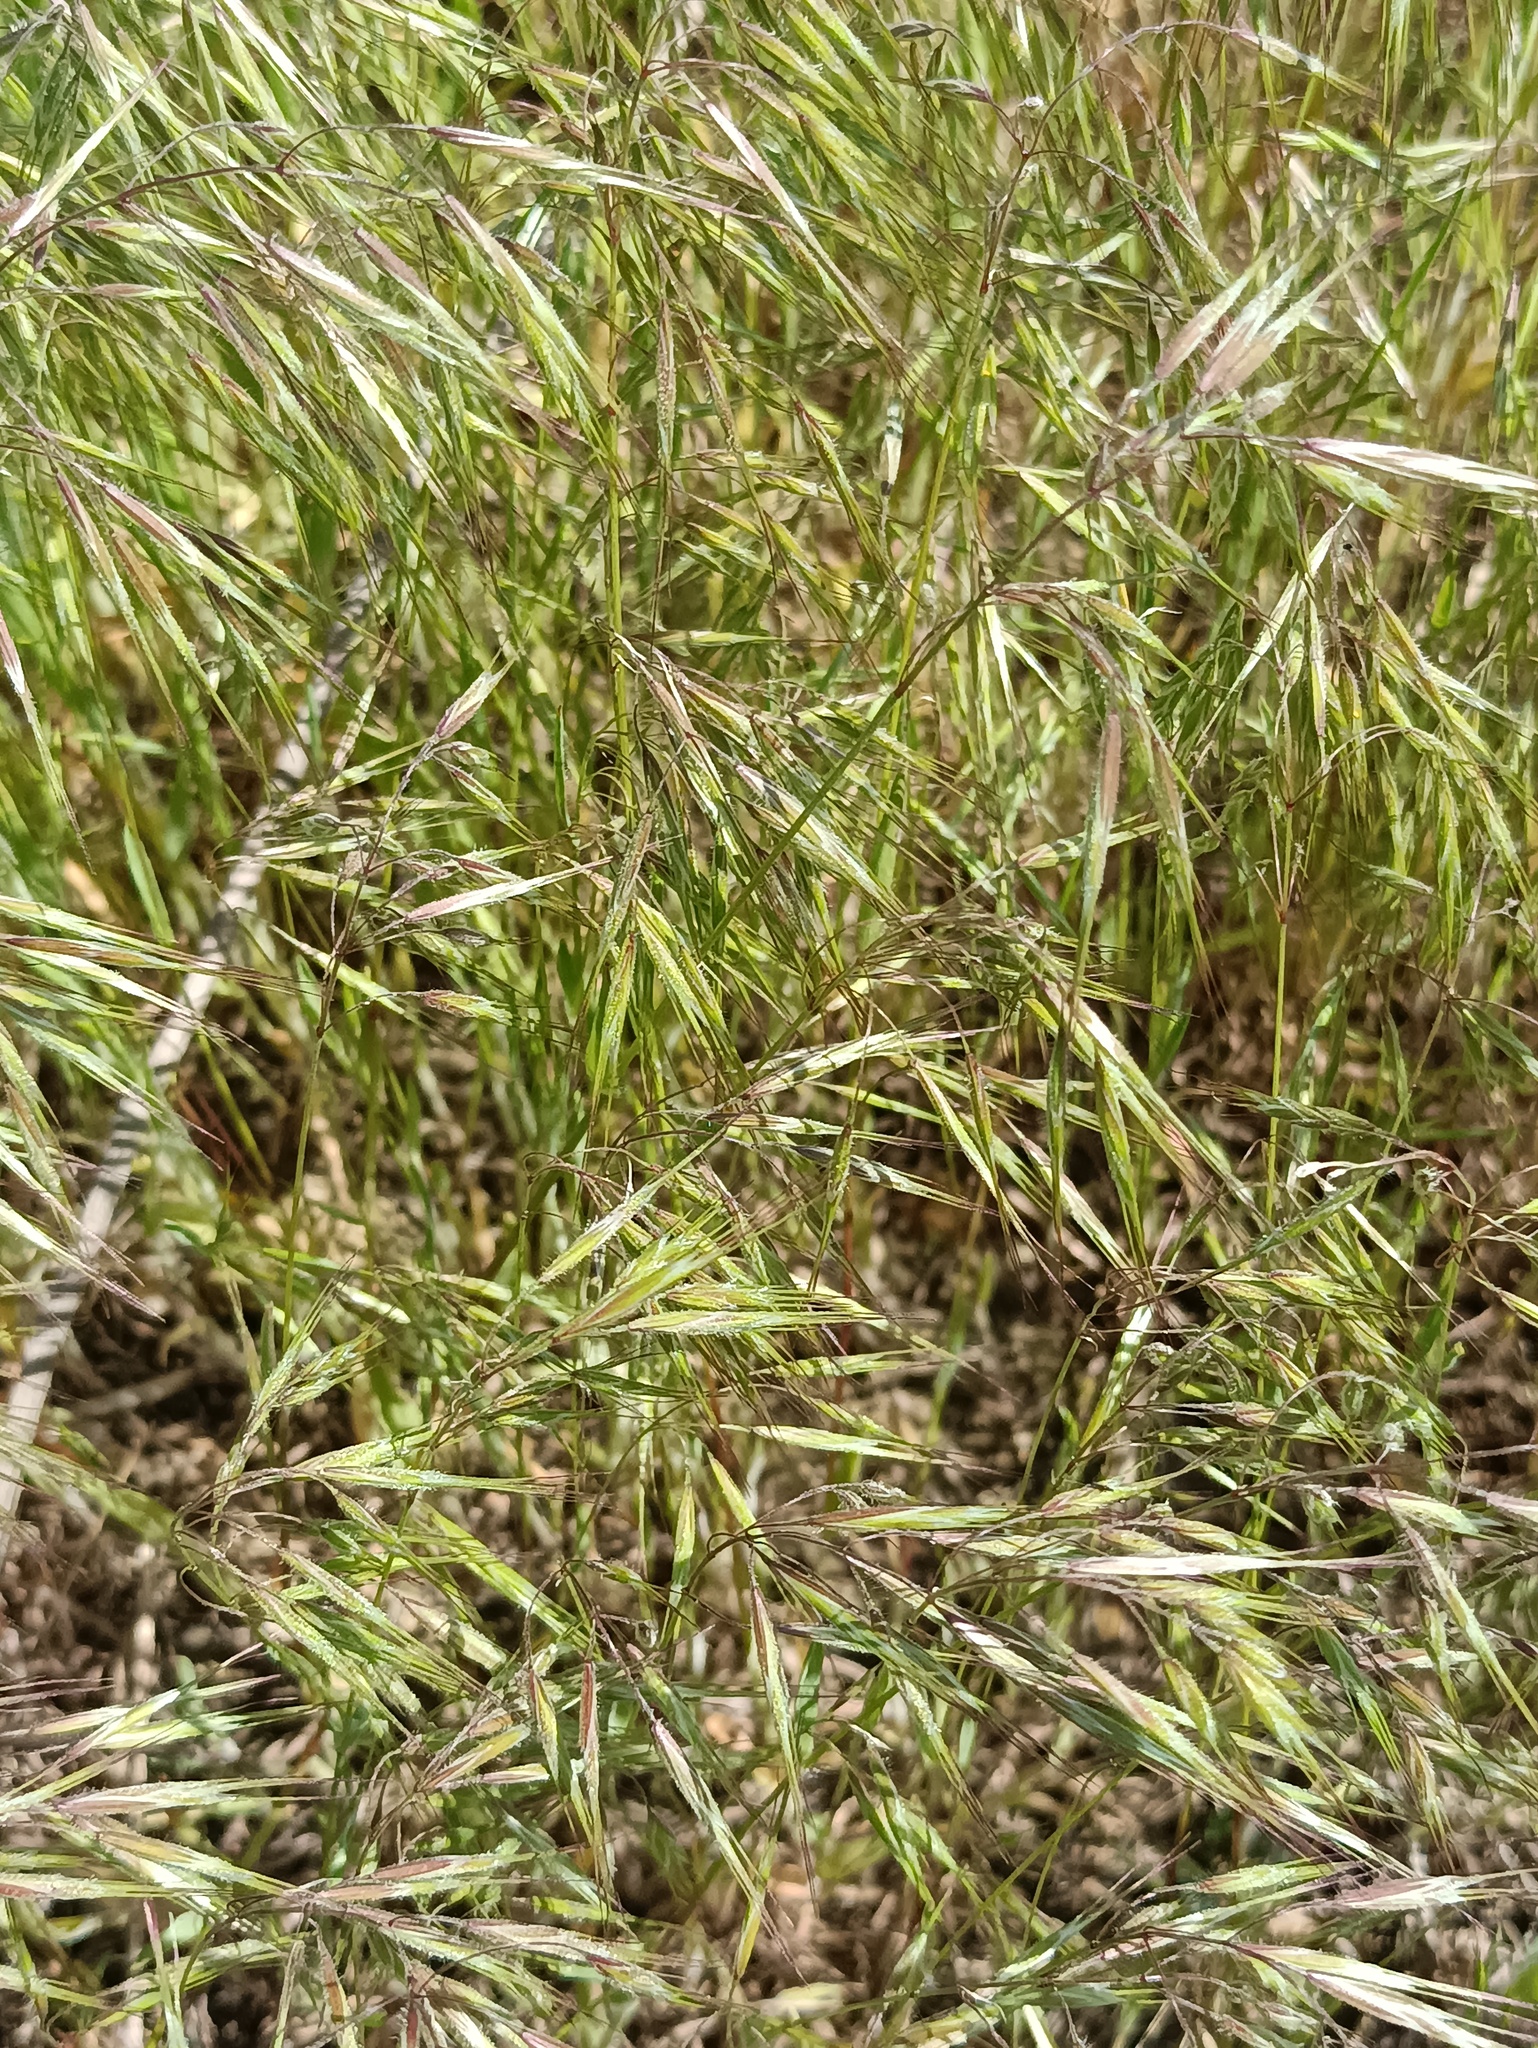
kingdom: Plantae
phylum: Tracheophyta
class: Liliopsida
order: Poales
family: Poaceae
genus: Bromus
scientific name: Bromus tectorum
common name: Cheatgrass
